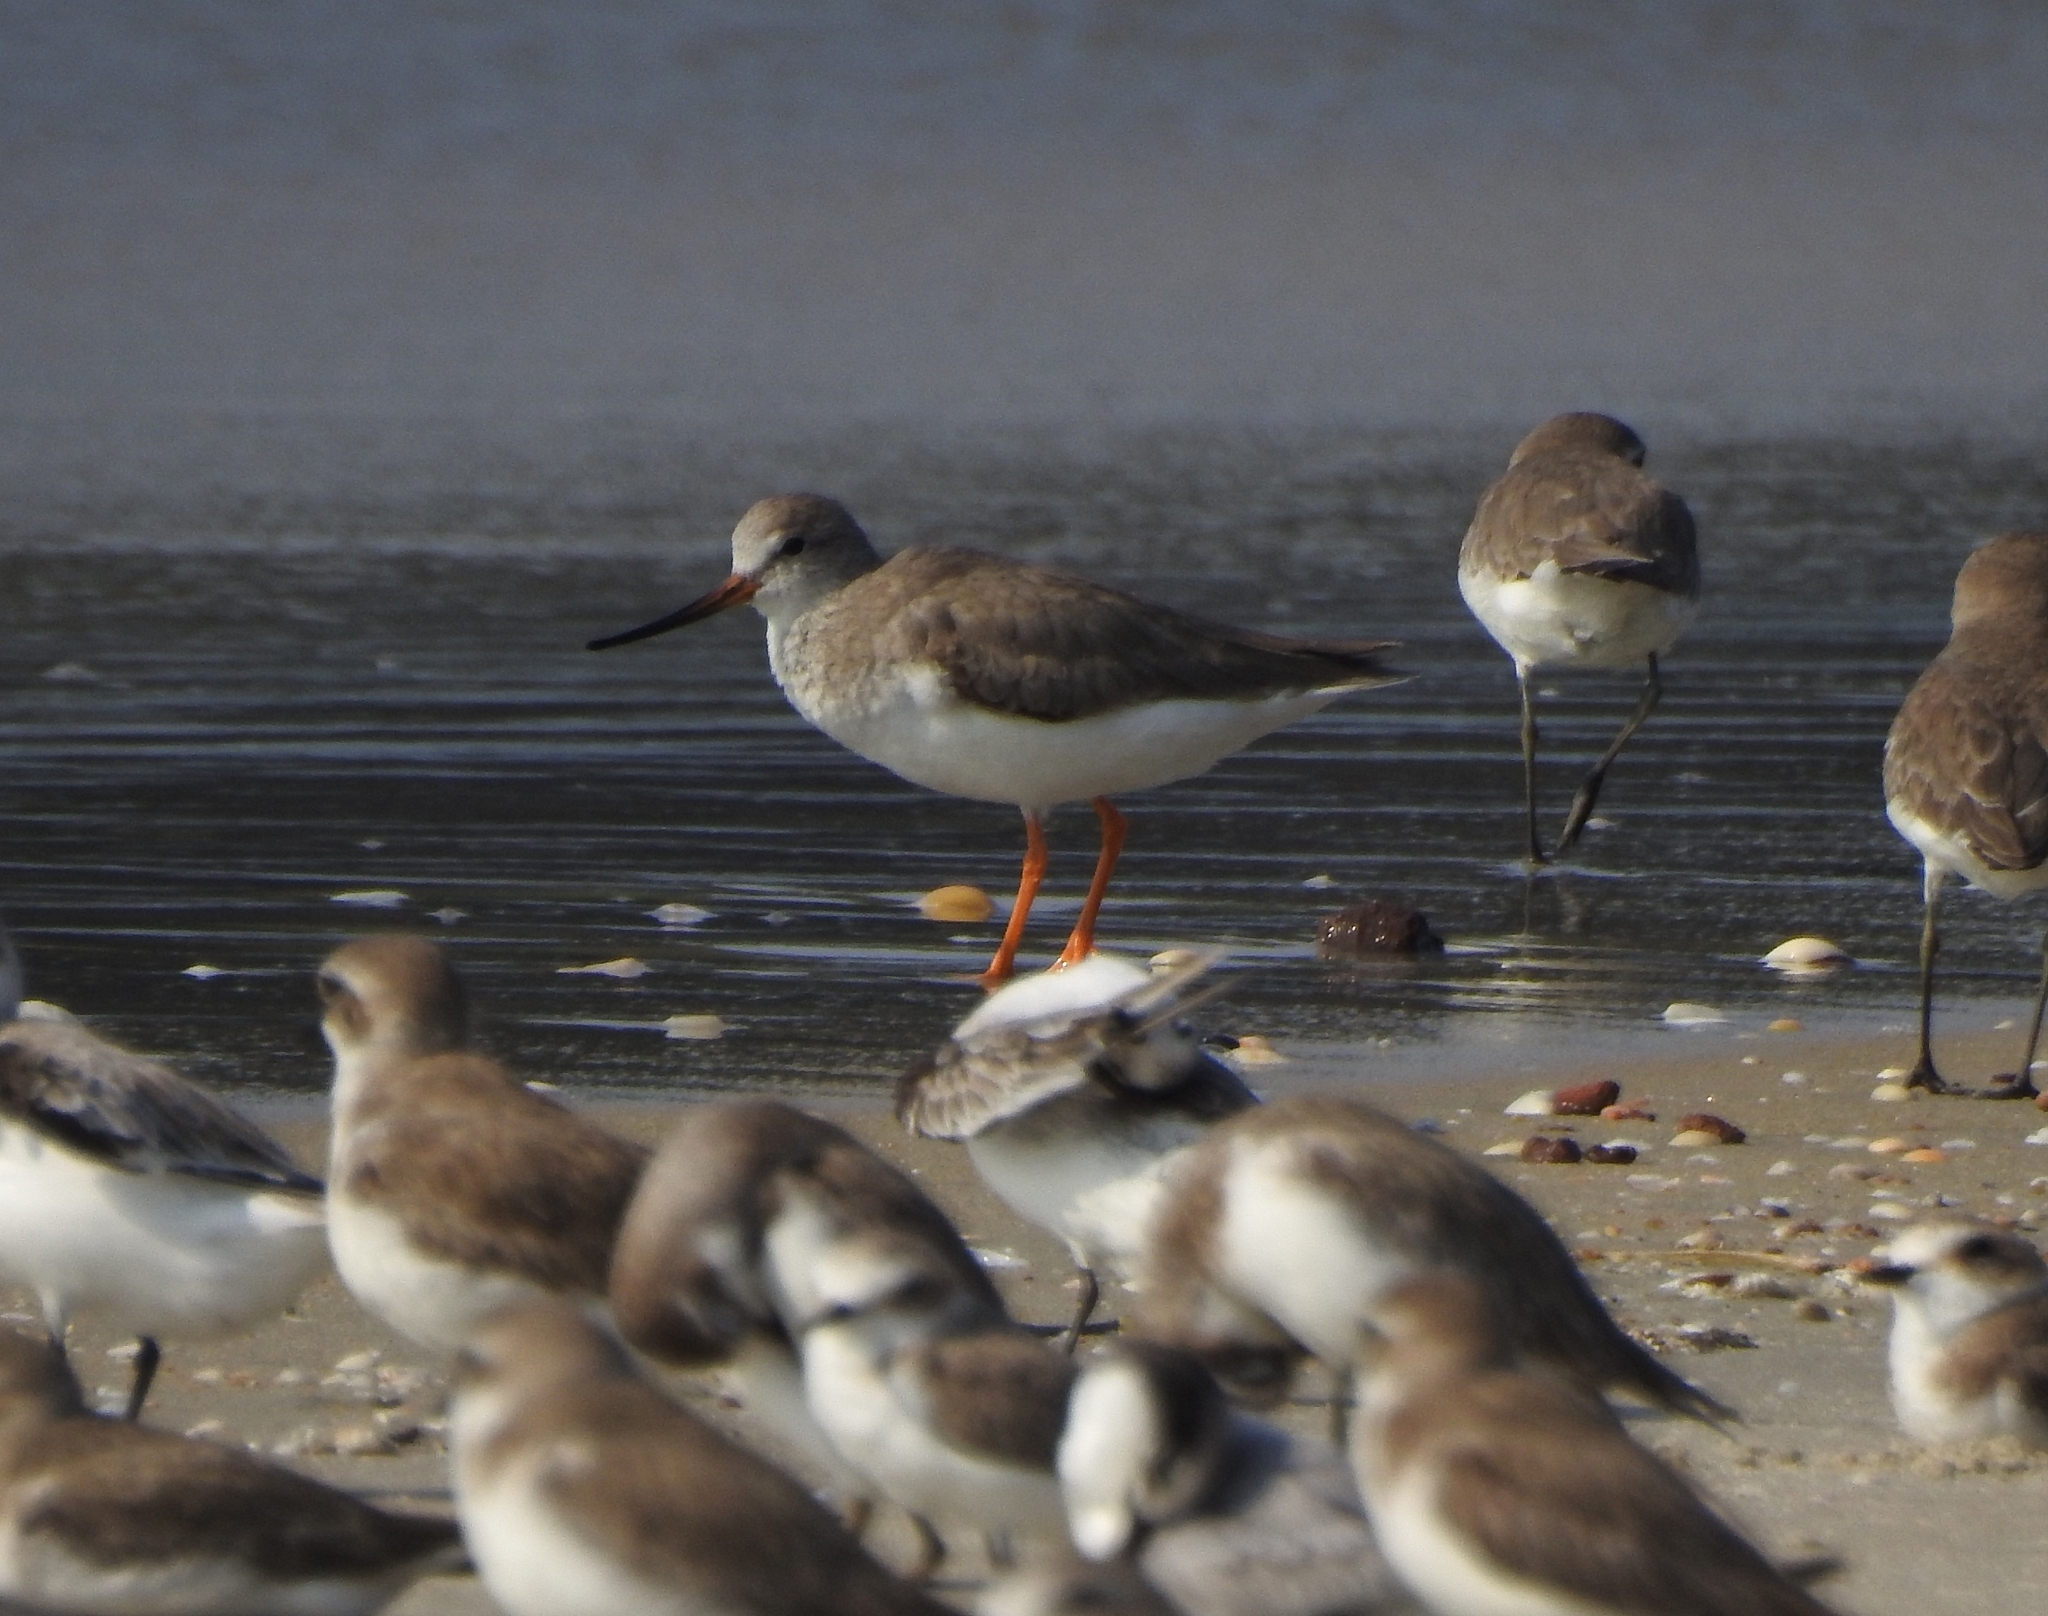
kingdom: Animalia
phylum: Chordata
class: Aves
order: Charadriiformes
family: Scolopacidae
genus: Xenus
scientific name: Xenus cinereus
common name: Terek sandpiper
